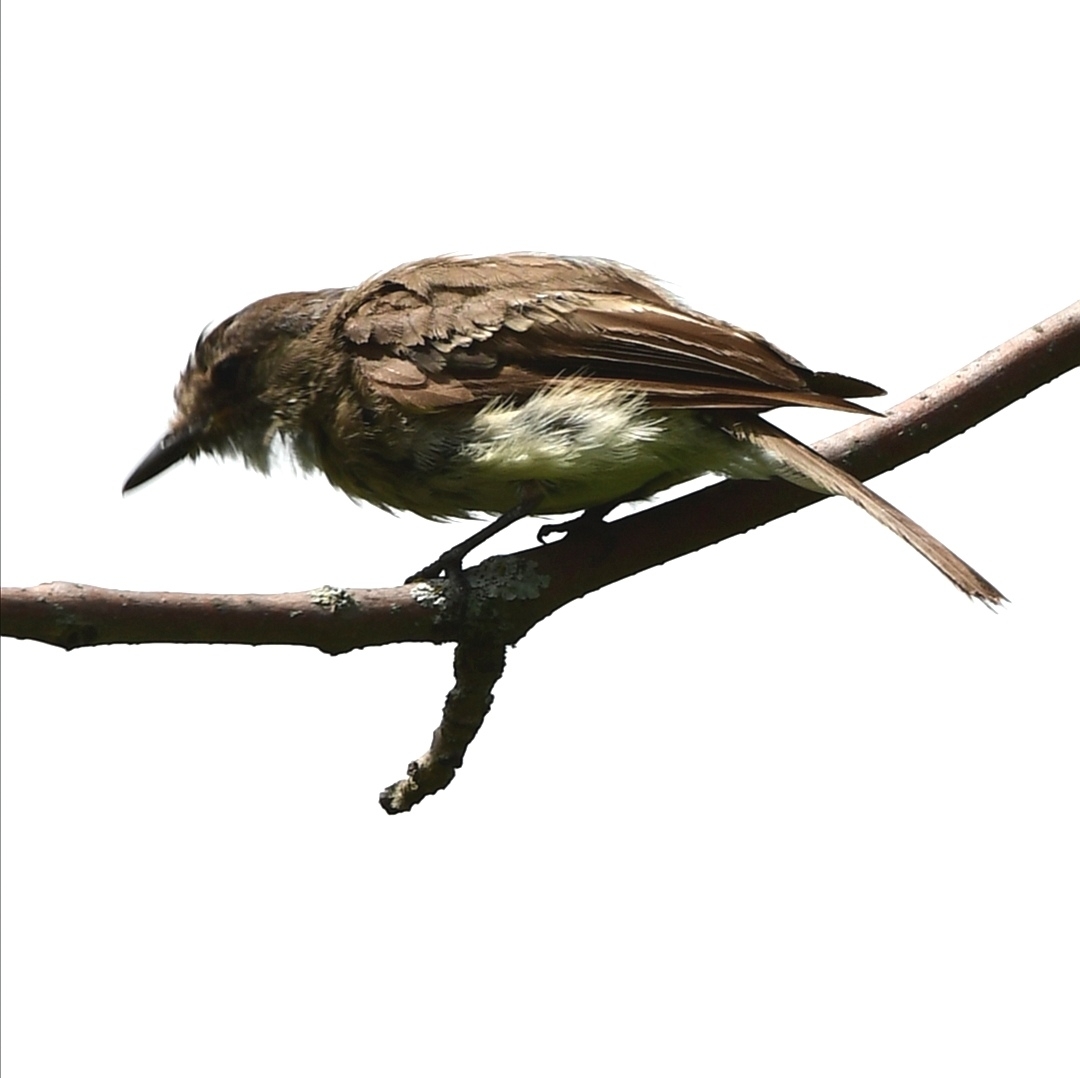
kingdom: Animalia
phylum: Chordata
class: Aves
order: Passeriformes
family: Tyrannidae
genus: Sayornis
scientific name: Sayornis phoebe
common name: Eastern phoebe
